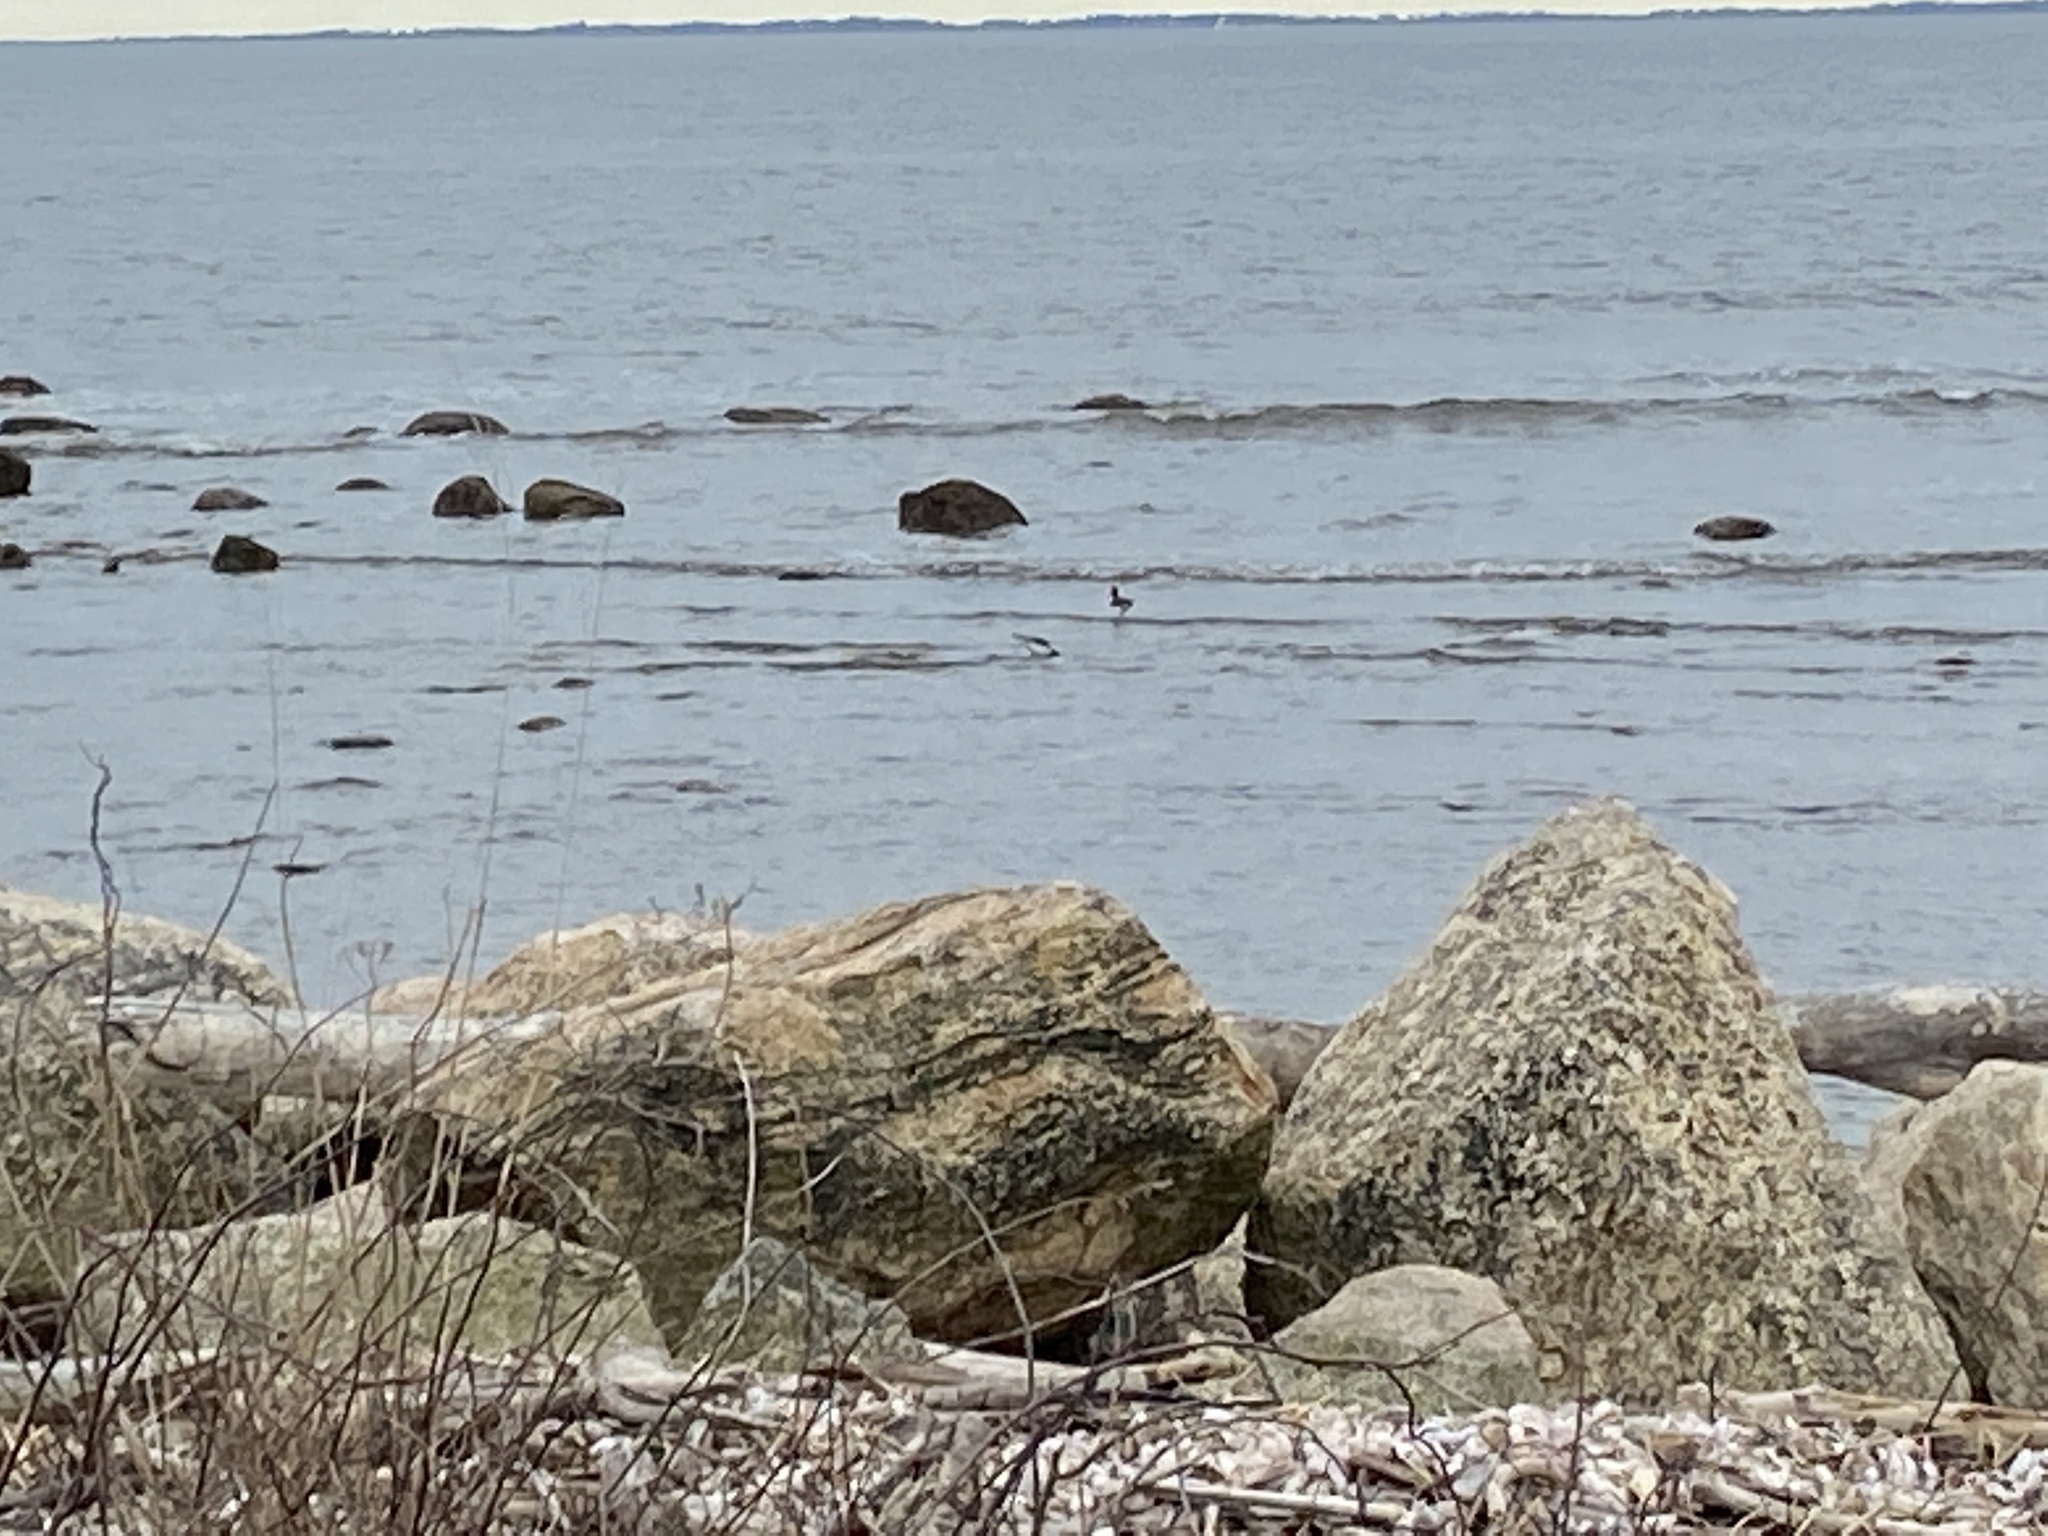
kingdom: Animalia
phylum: Chordata
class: Aves
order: Charadriiformes
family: Haematopodidae
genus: Haematopus
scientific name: Haematopus palliatus
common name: American oystercatcher
